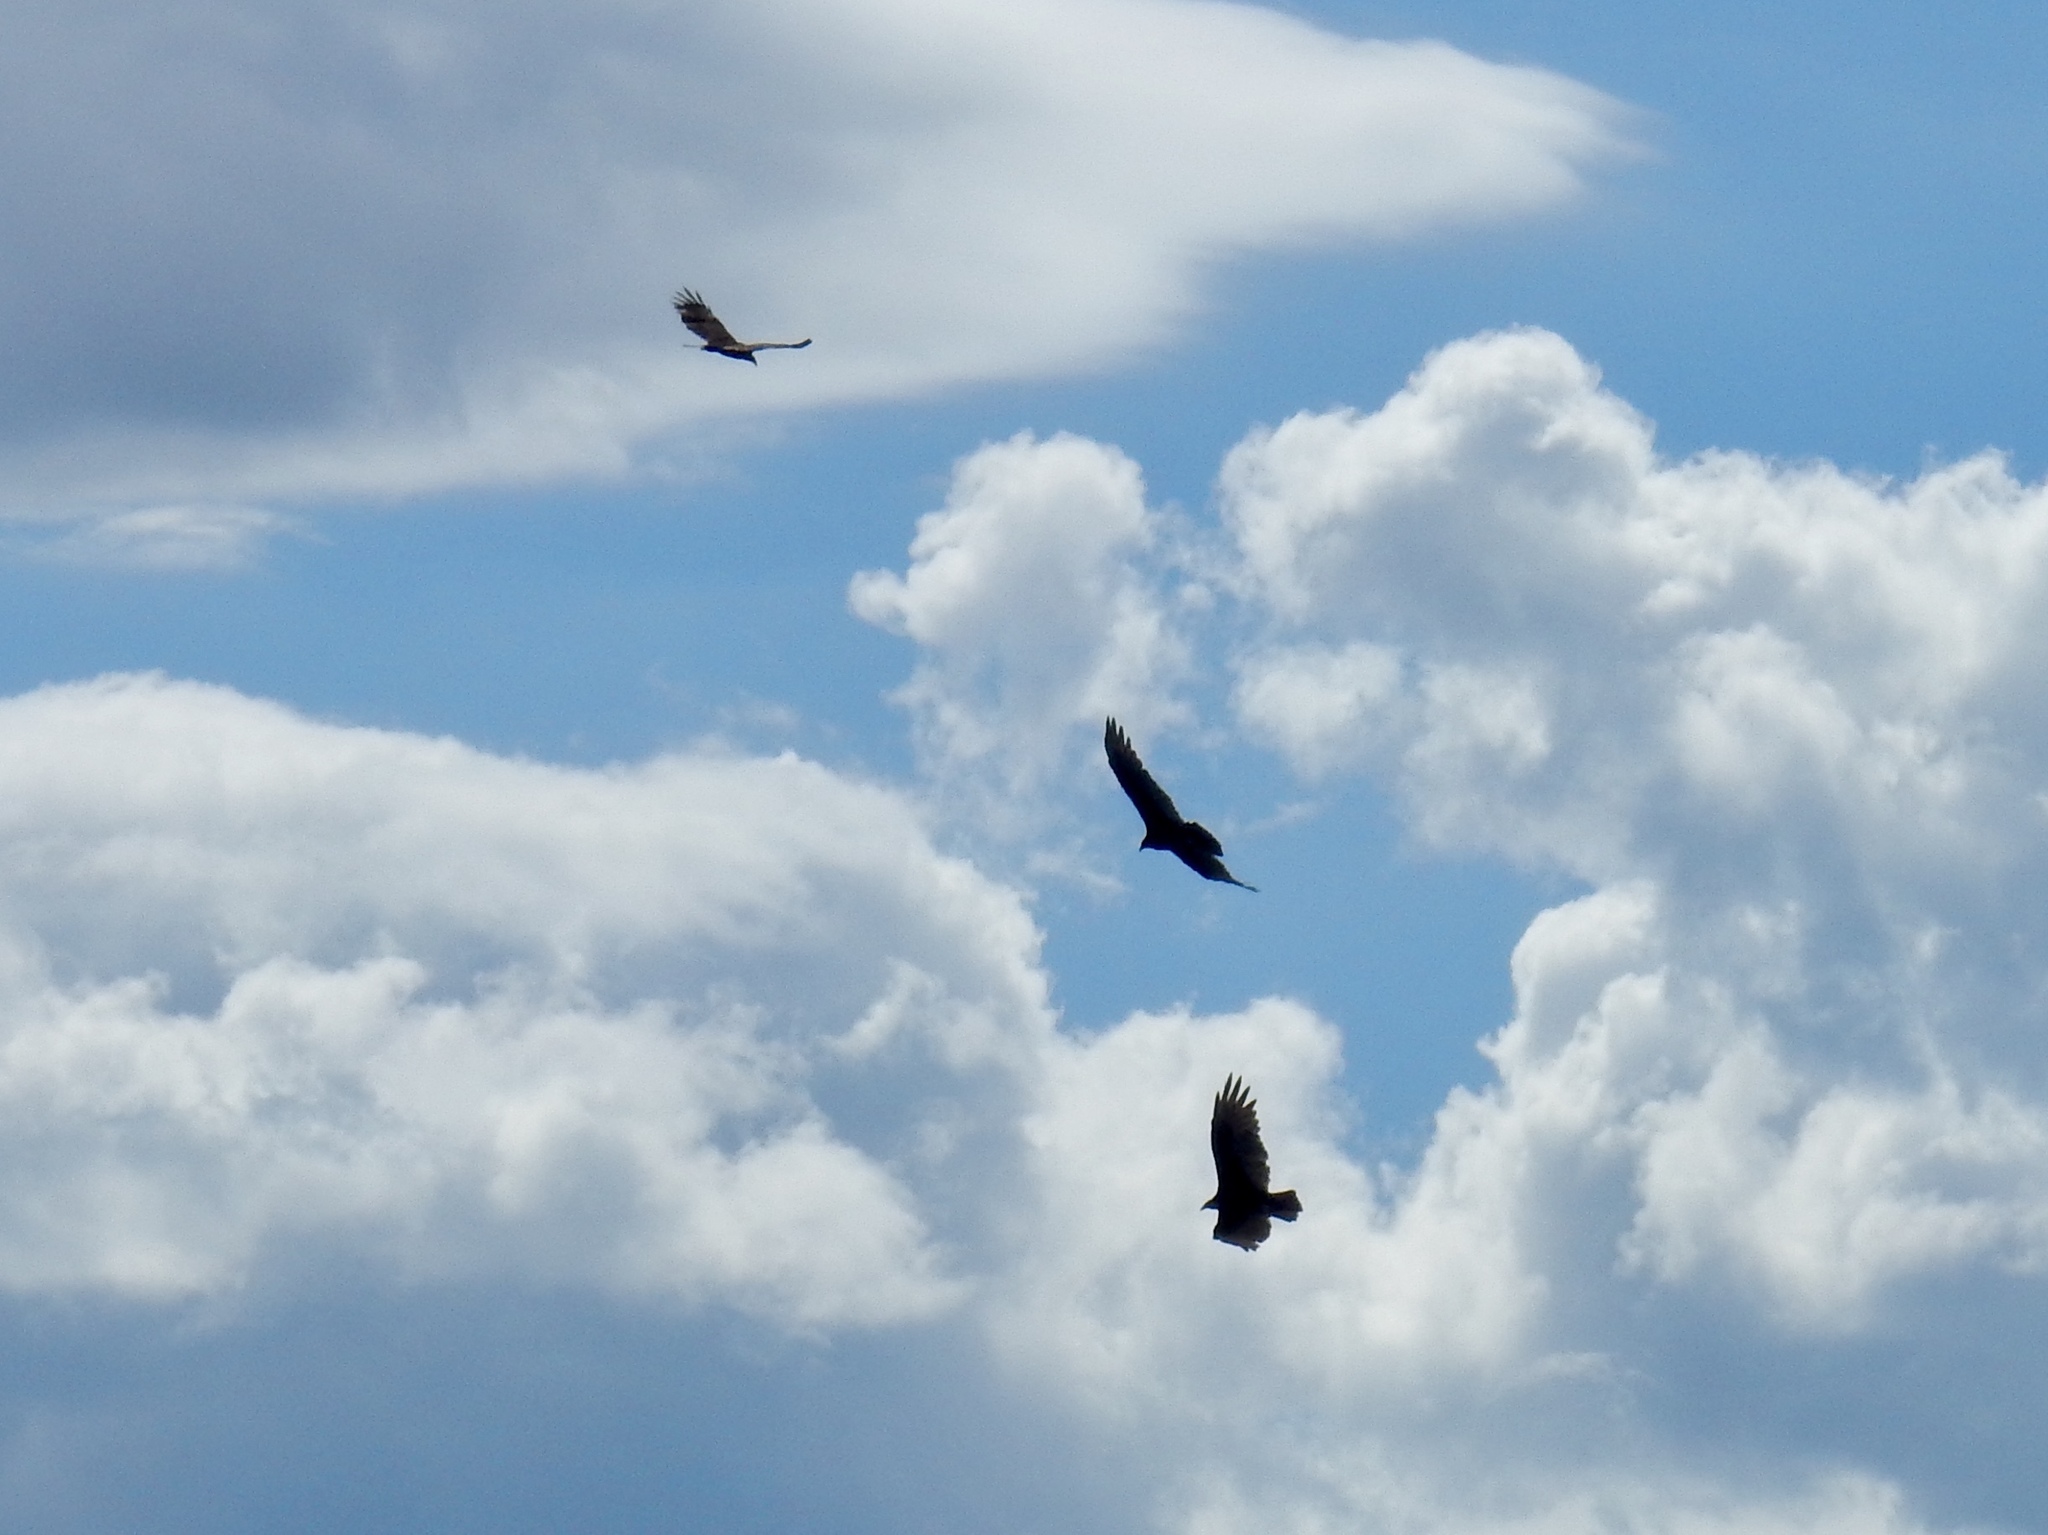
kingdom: Animalia
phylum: Chordata
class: Aves
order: Accipitriformes
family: Cathartidae
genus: Cathartes
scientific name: Cathartes aura
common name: Turkey vulture
